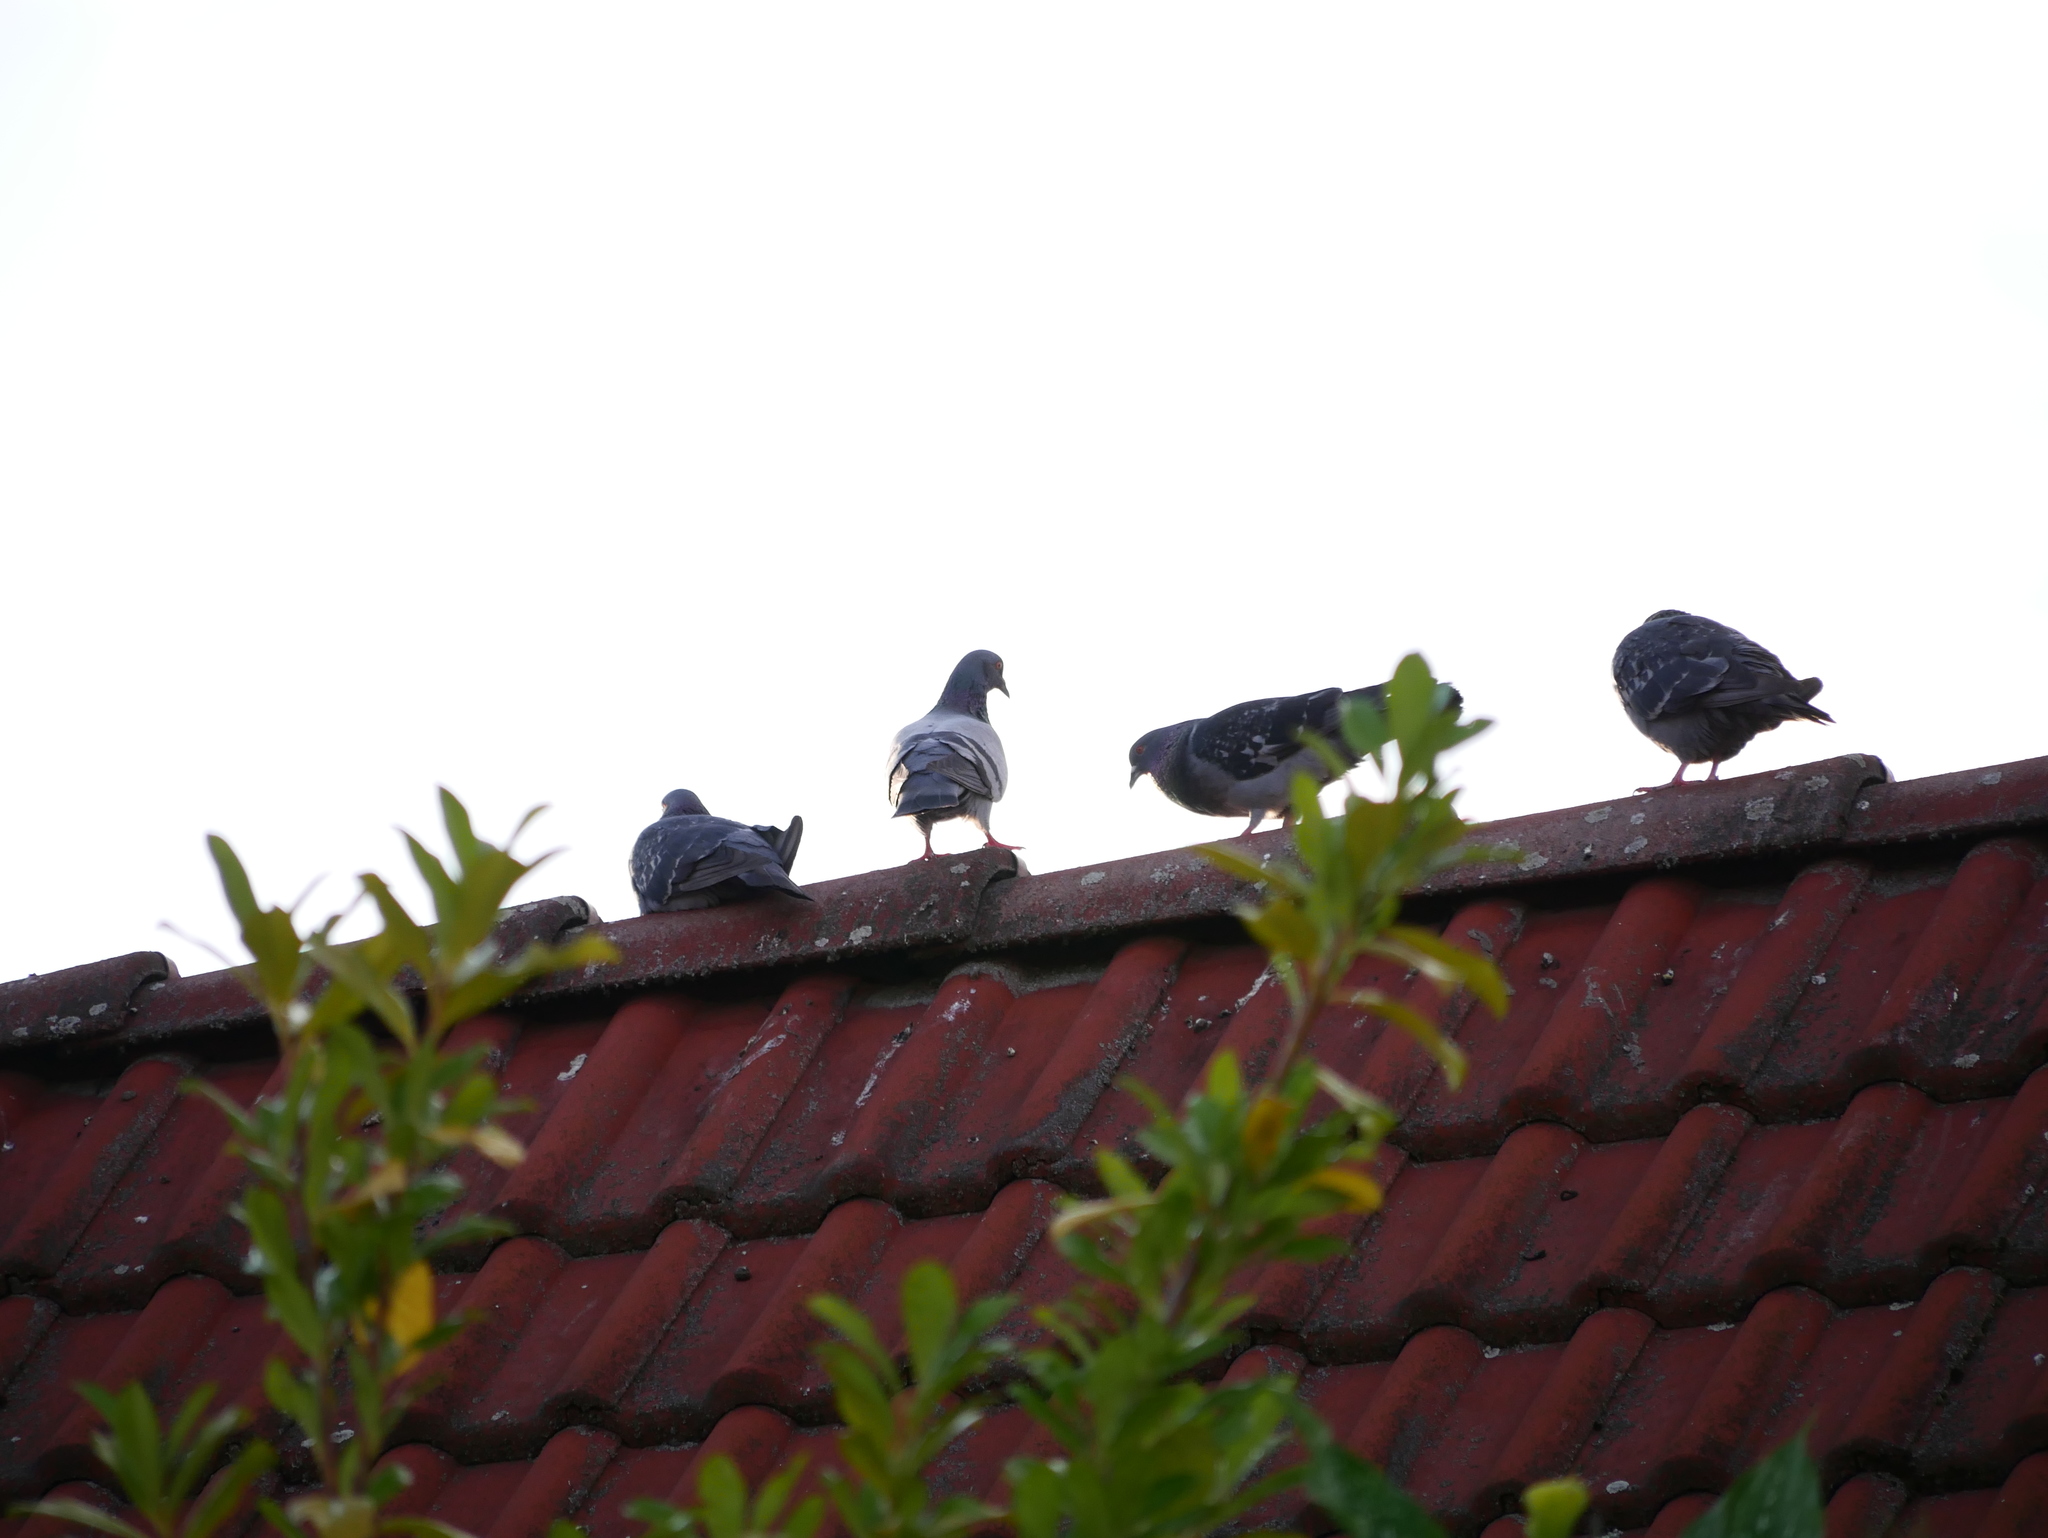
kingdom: Animalia
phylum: Chordata
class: Aves
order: Columbiformes
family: Columbidae
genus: Columba
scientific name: Columba livia
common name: Rock pigeon
